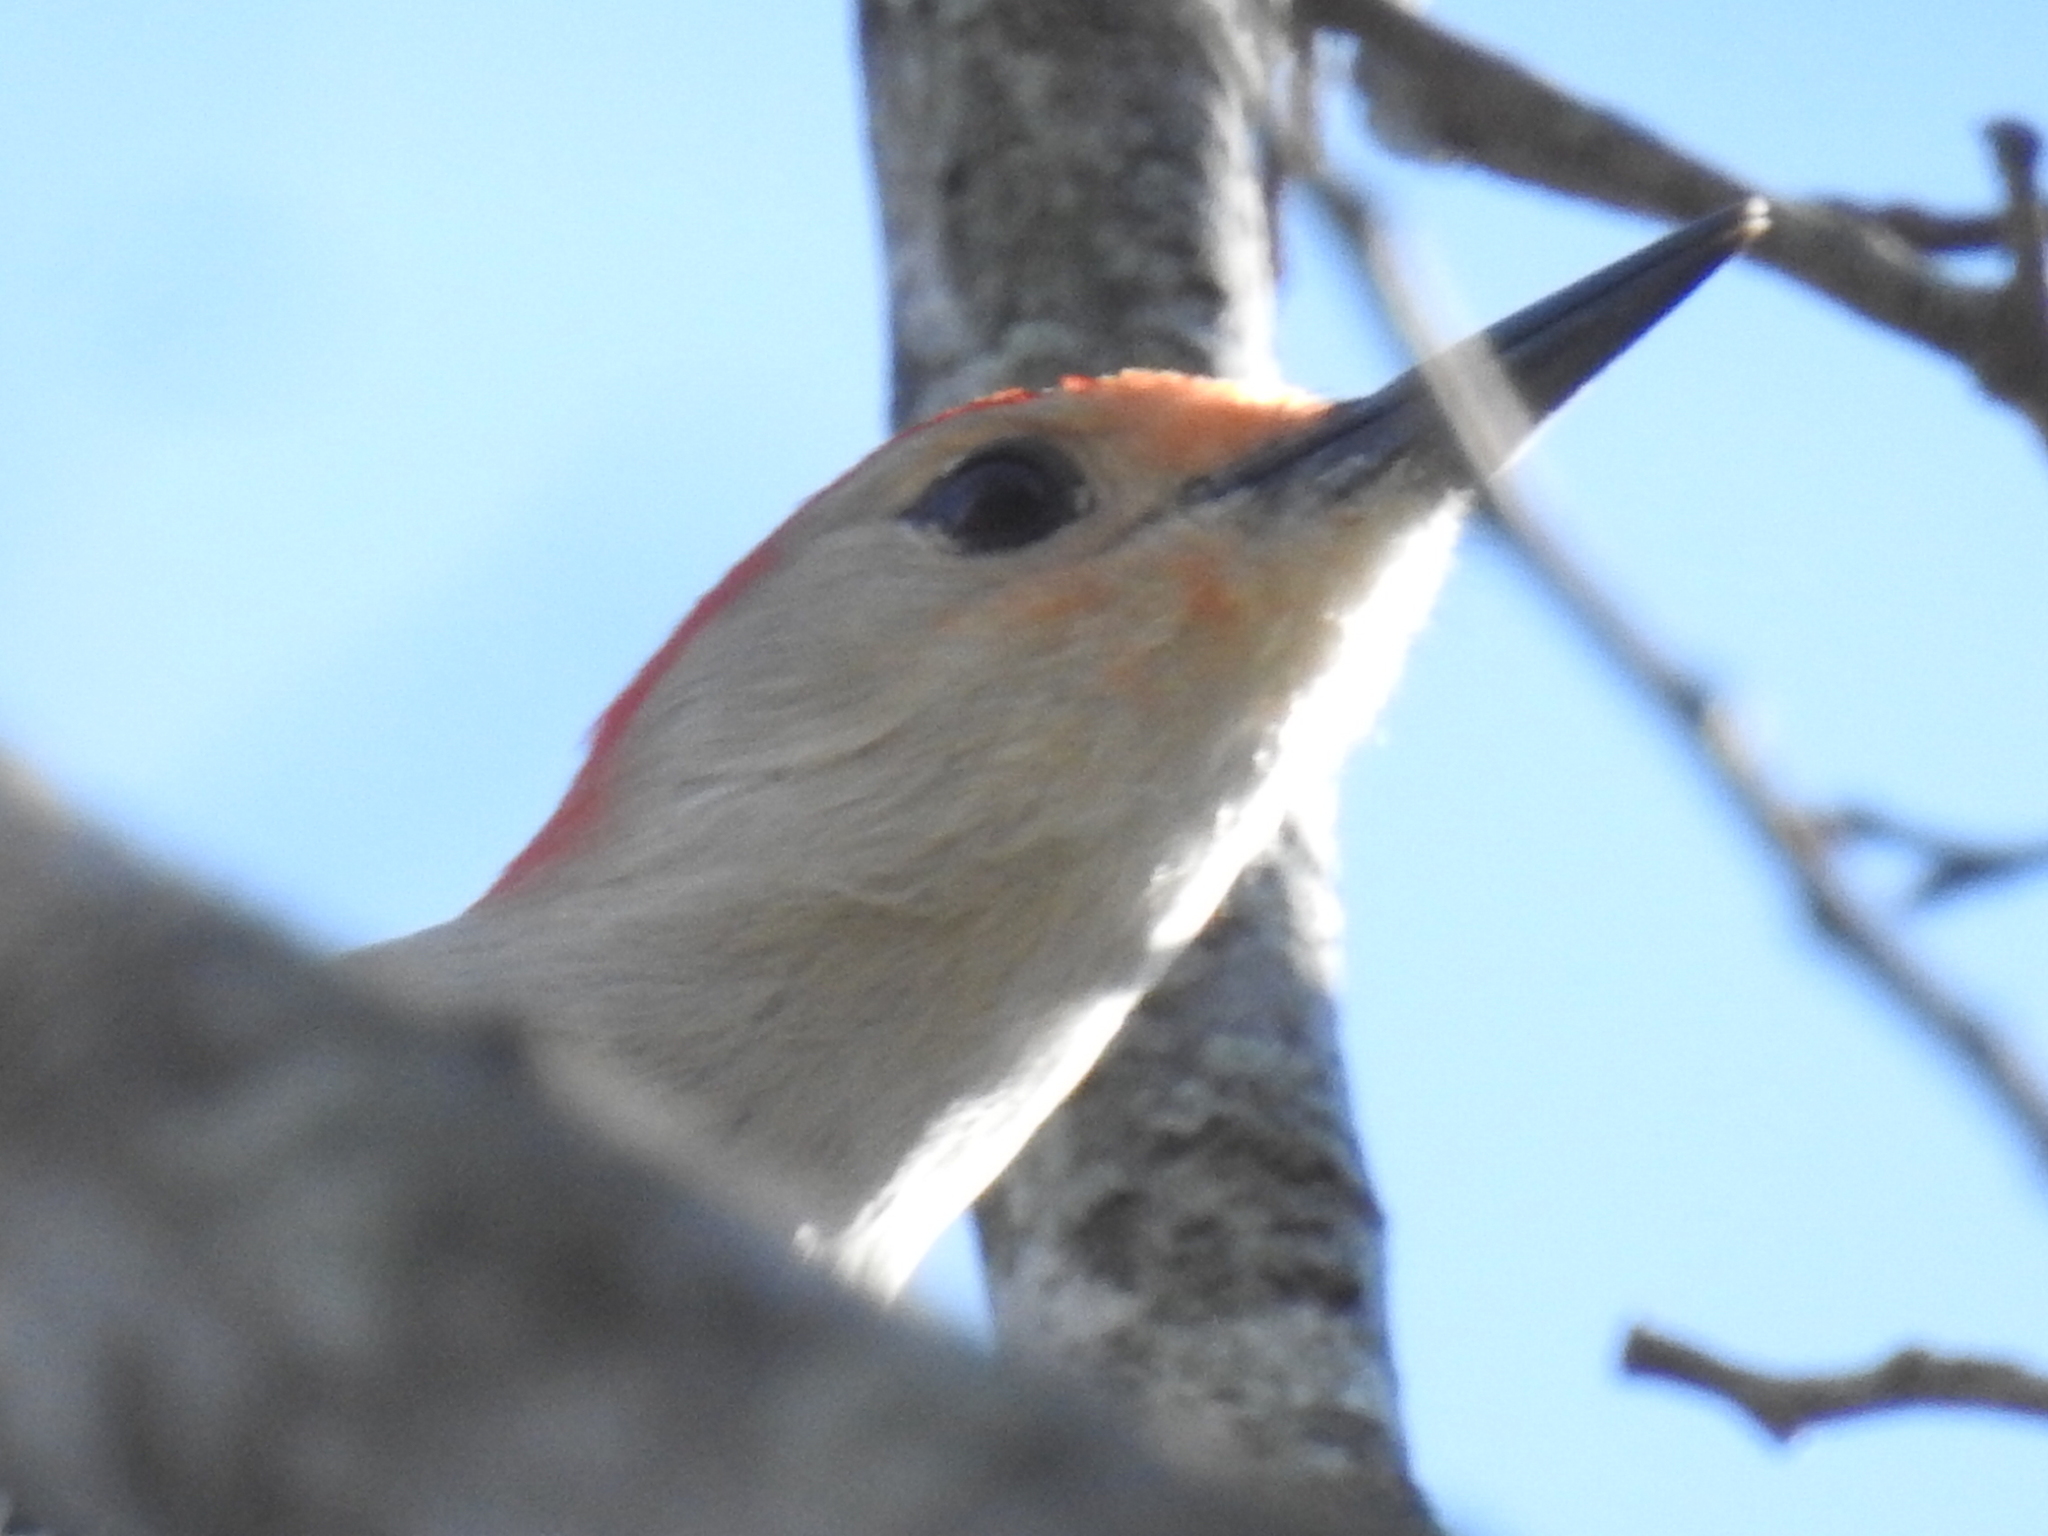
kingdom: Animalia
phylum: Chordata
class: Aves
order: Piciformes
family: Picidae
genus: Melanerpes
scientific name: Melanerpes carolinus
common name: Red-bellied woodpecker
